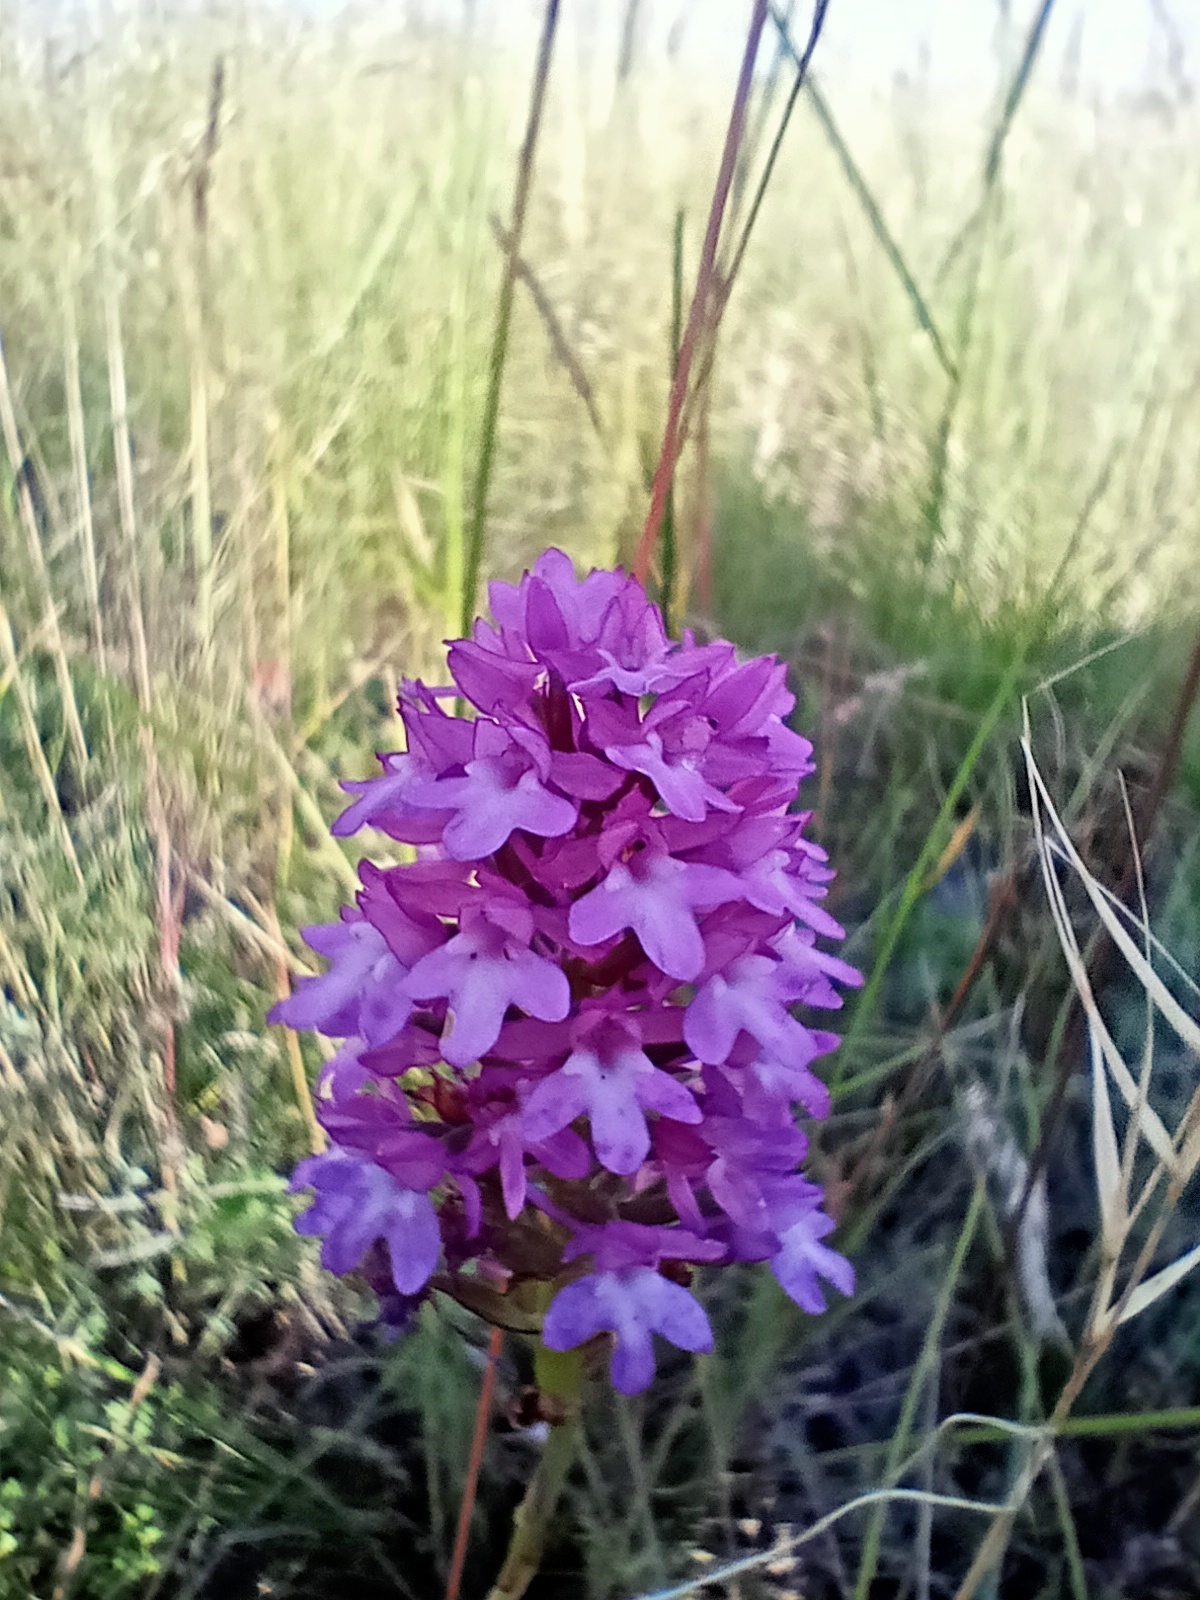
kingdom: Plantae
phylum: Tracheophyta
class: Liliopsida
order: Asparagales
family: Orchidaceae
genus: Anacamptis
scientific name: Anacamptis pyramidalis
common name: Pyramidal orchid
